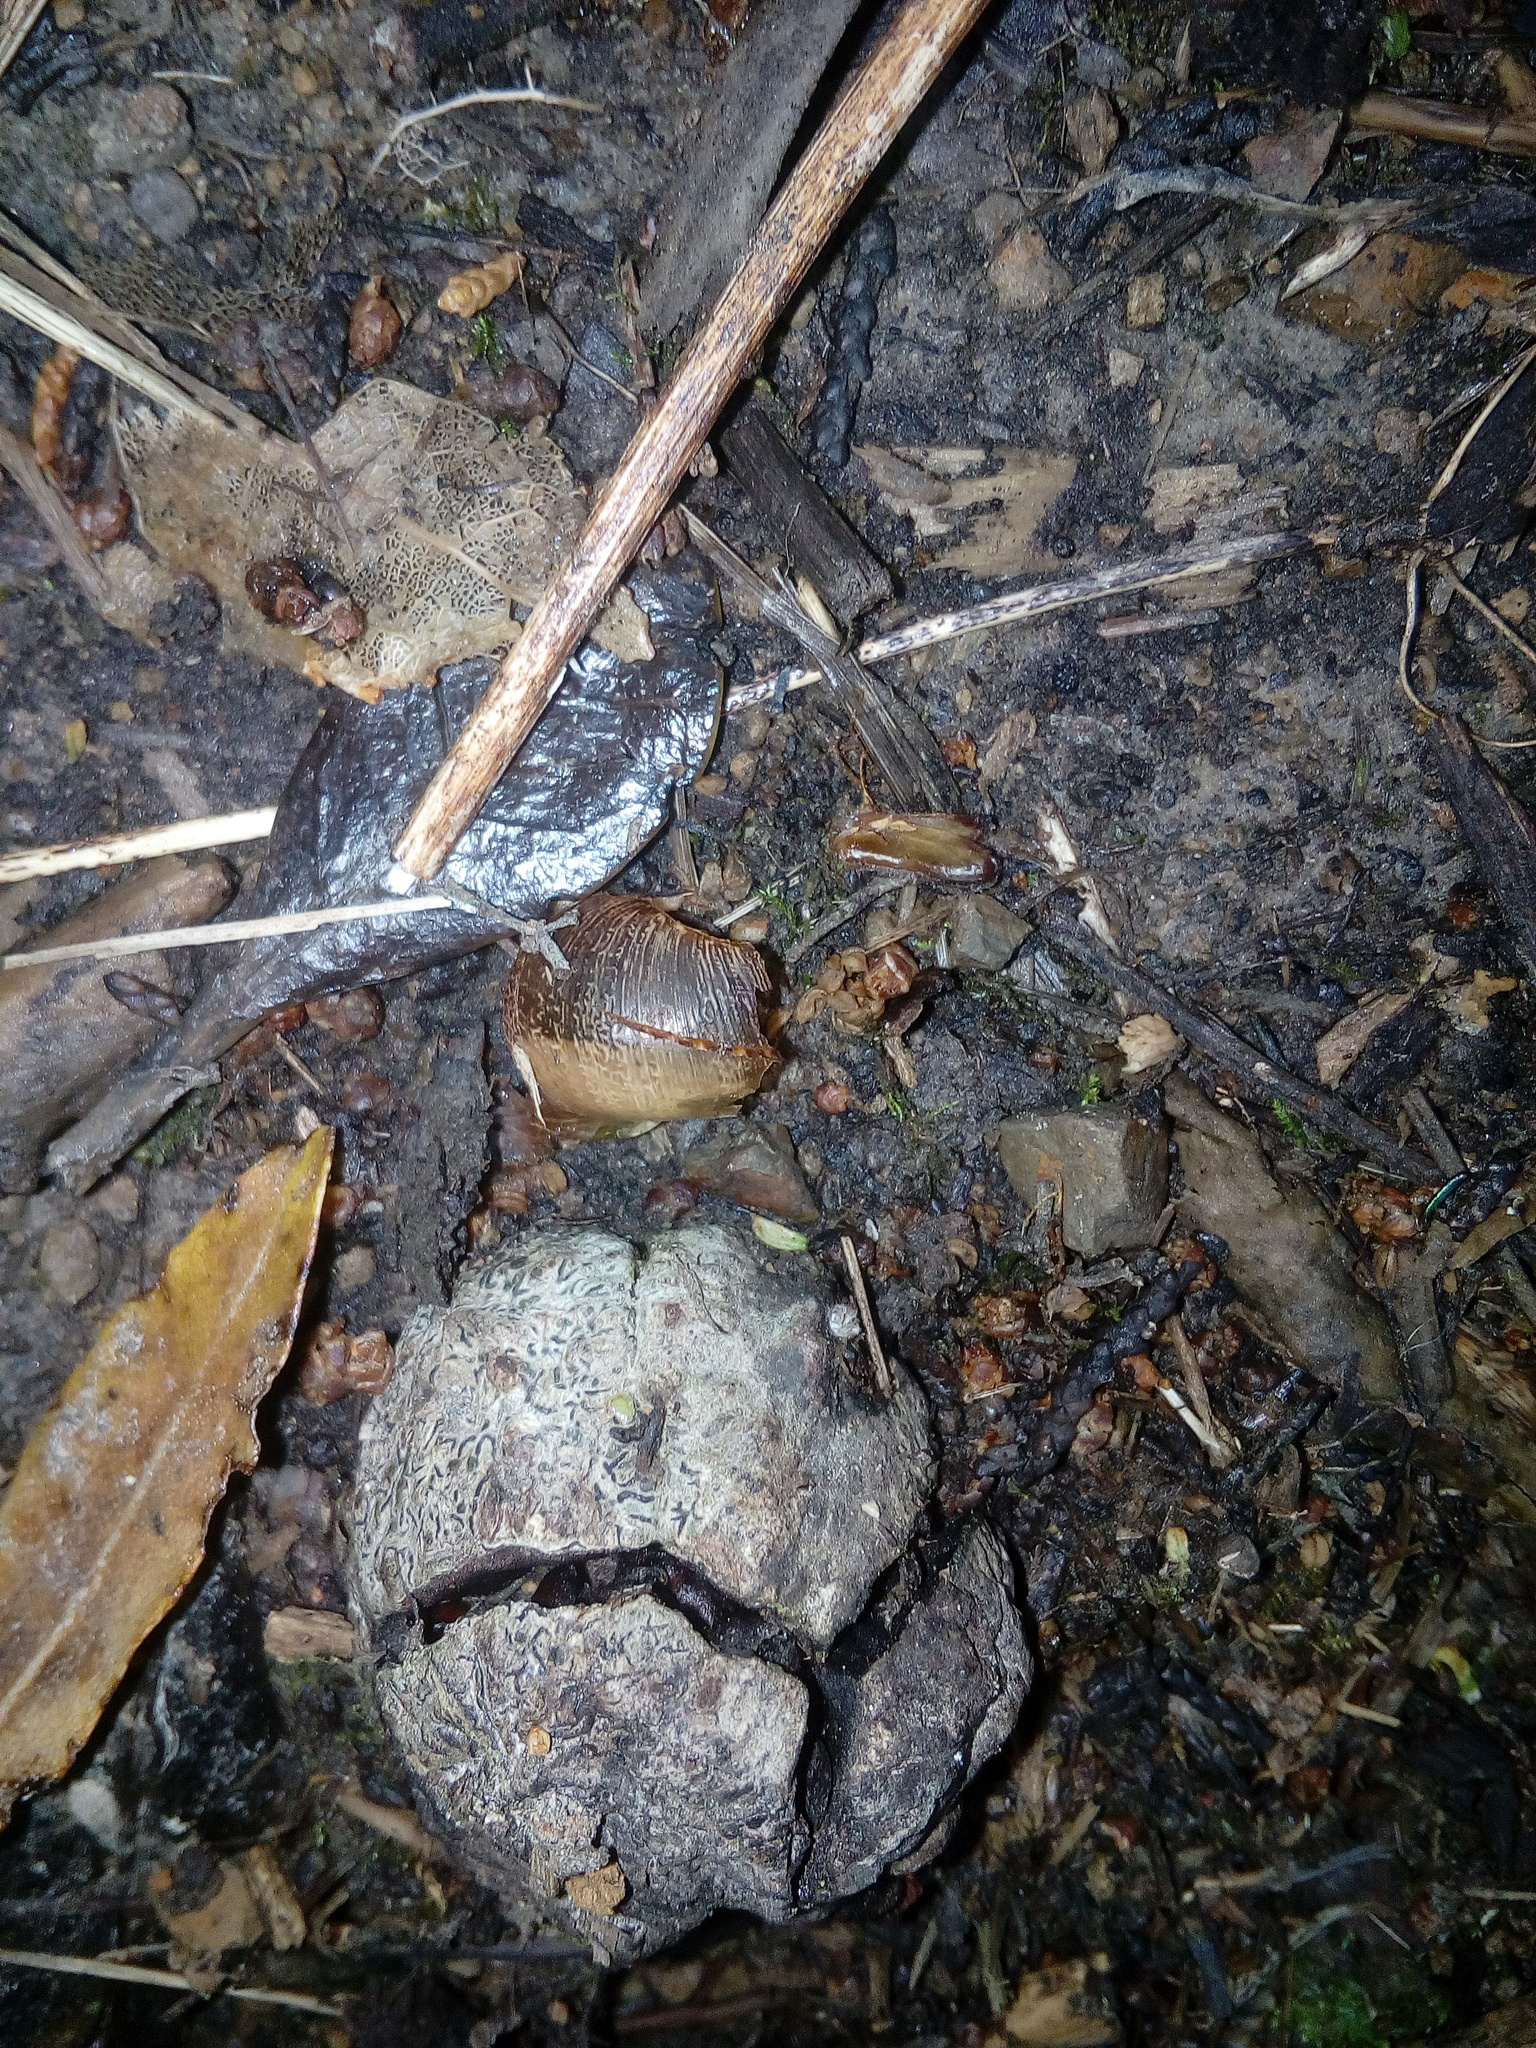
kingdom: Animalia
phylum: Mollusca
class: Gastropoda
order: Stylommatophora
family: Helicidae
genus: Cornu
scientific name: Cornu aspersum
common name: Brown garden snail
